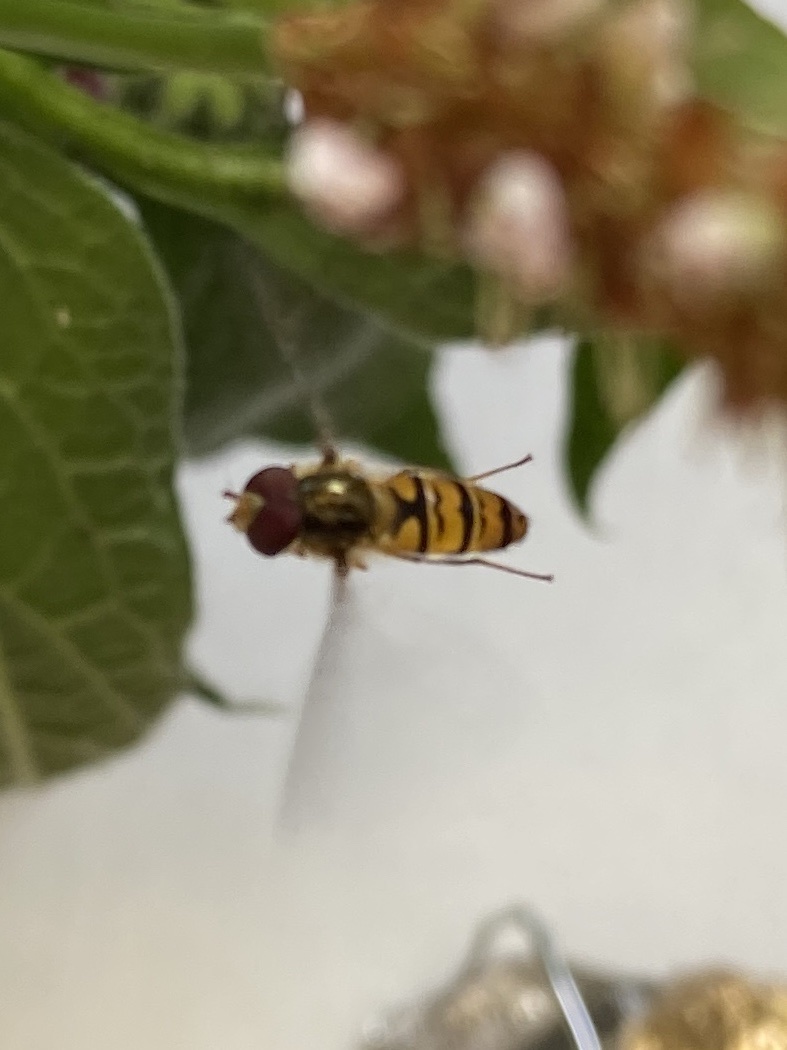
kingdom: Animalia
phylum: Arthropoda
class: Insecta
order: Diptera
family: Syrphidae
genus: Episyrphus
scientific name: Episyrphus balteatus
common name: Marmalade hoverfly
